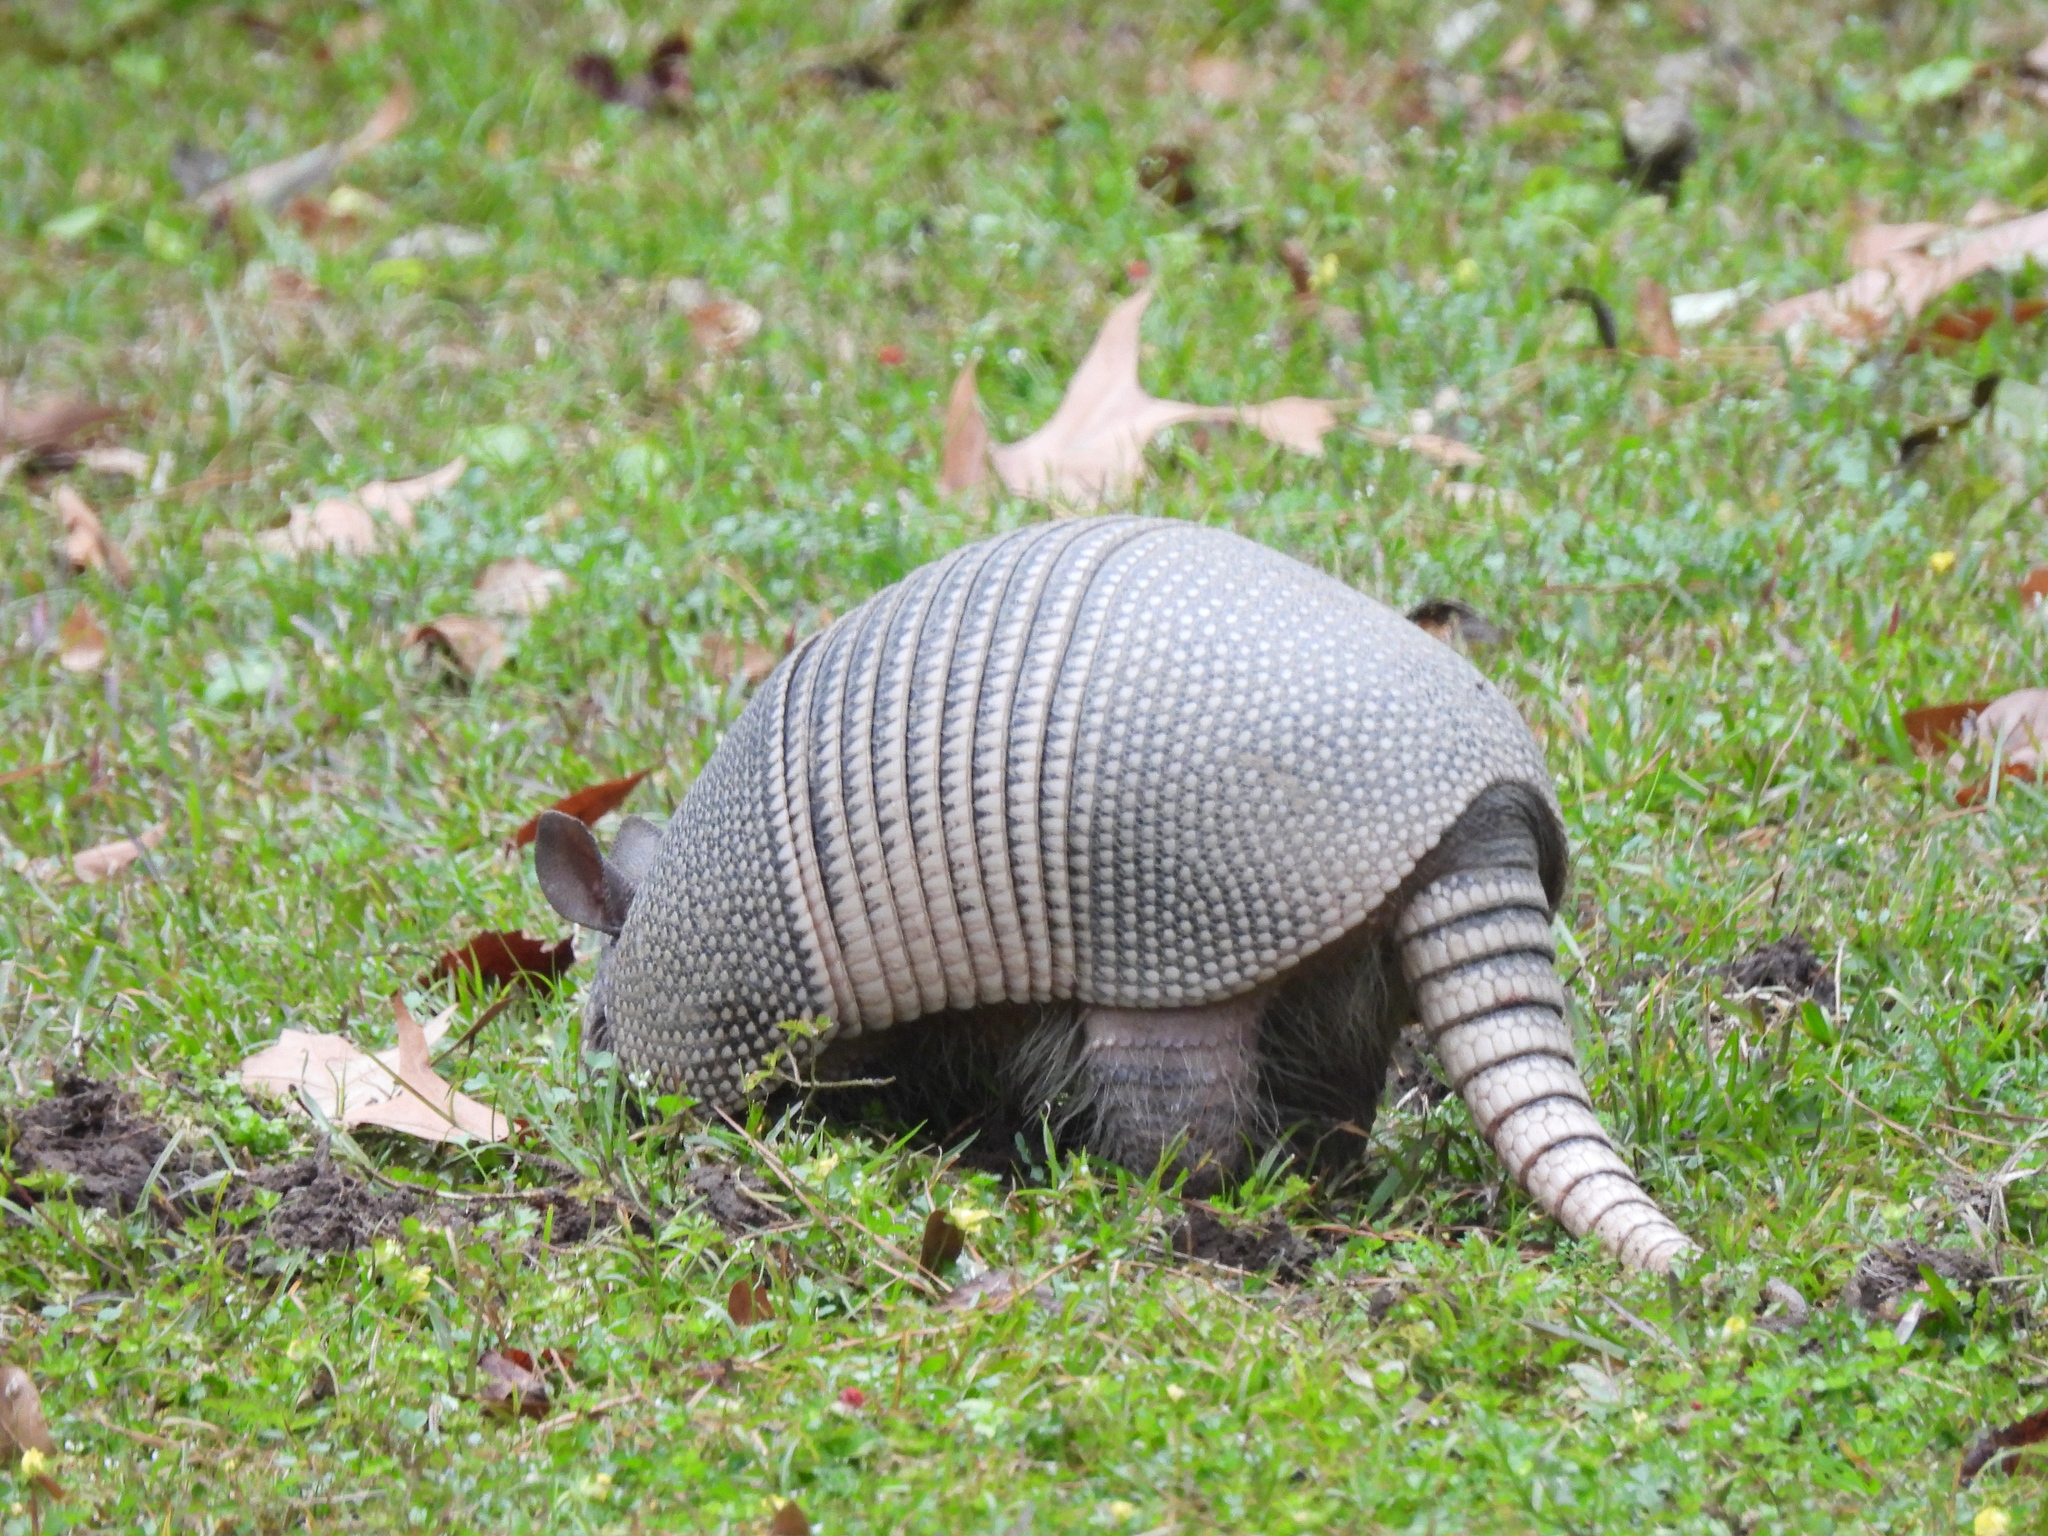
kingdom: Animalia
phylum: Chordata
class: Mammalia
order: Cingulata
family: Dasypodidae
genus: Dasypus
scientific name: Dasypus novemcinctus
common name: Nine-banded armadillo
